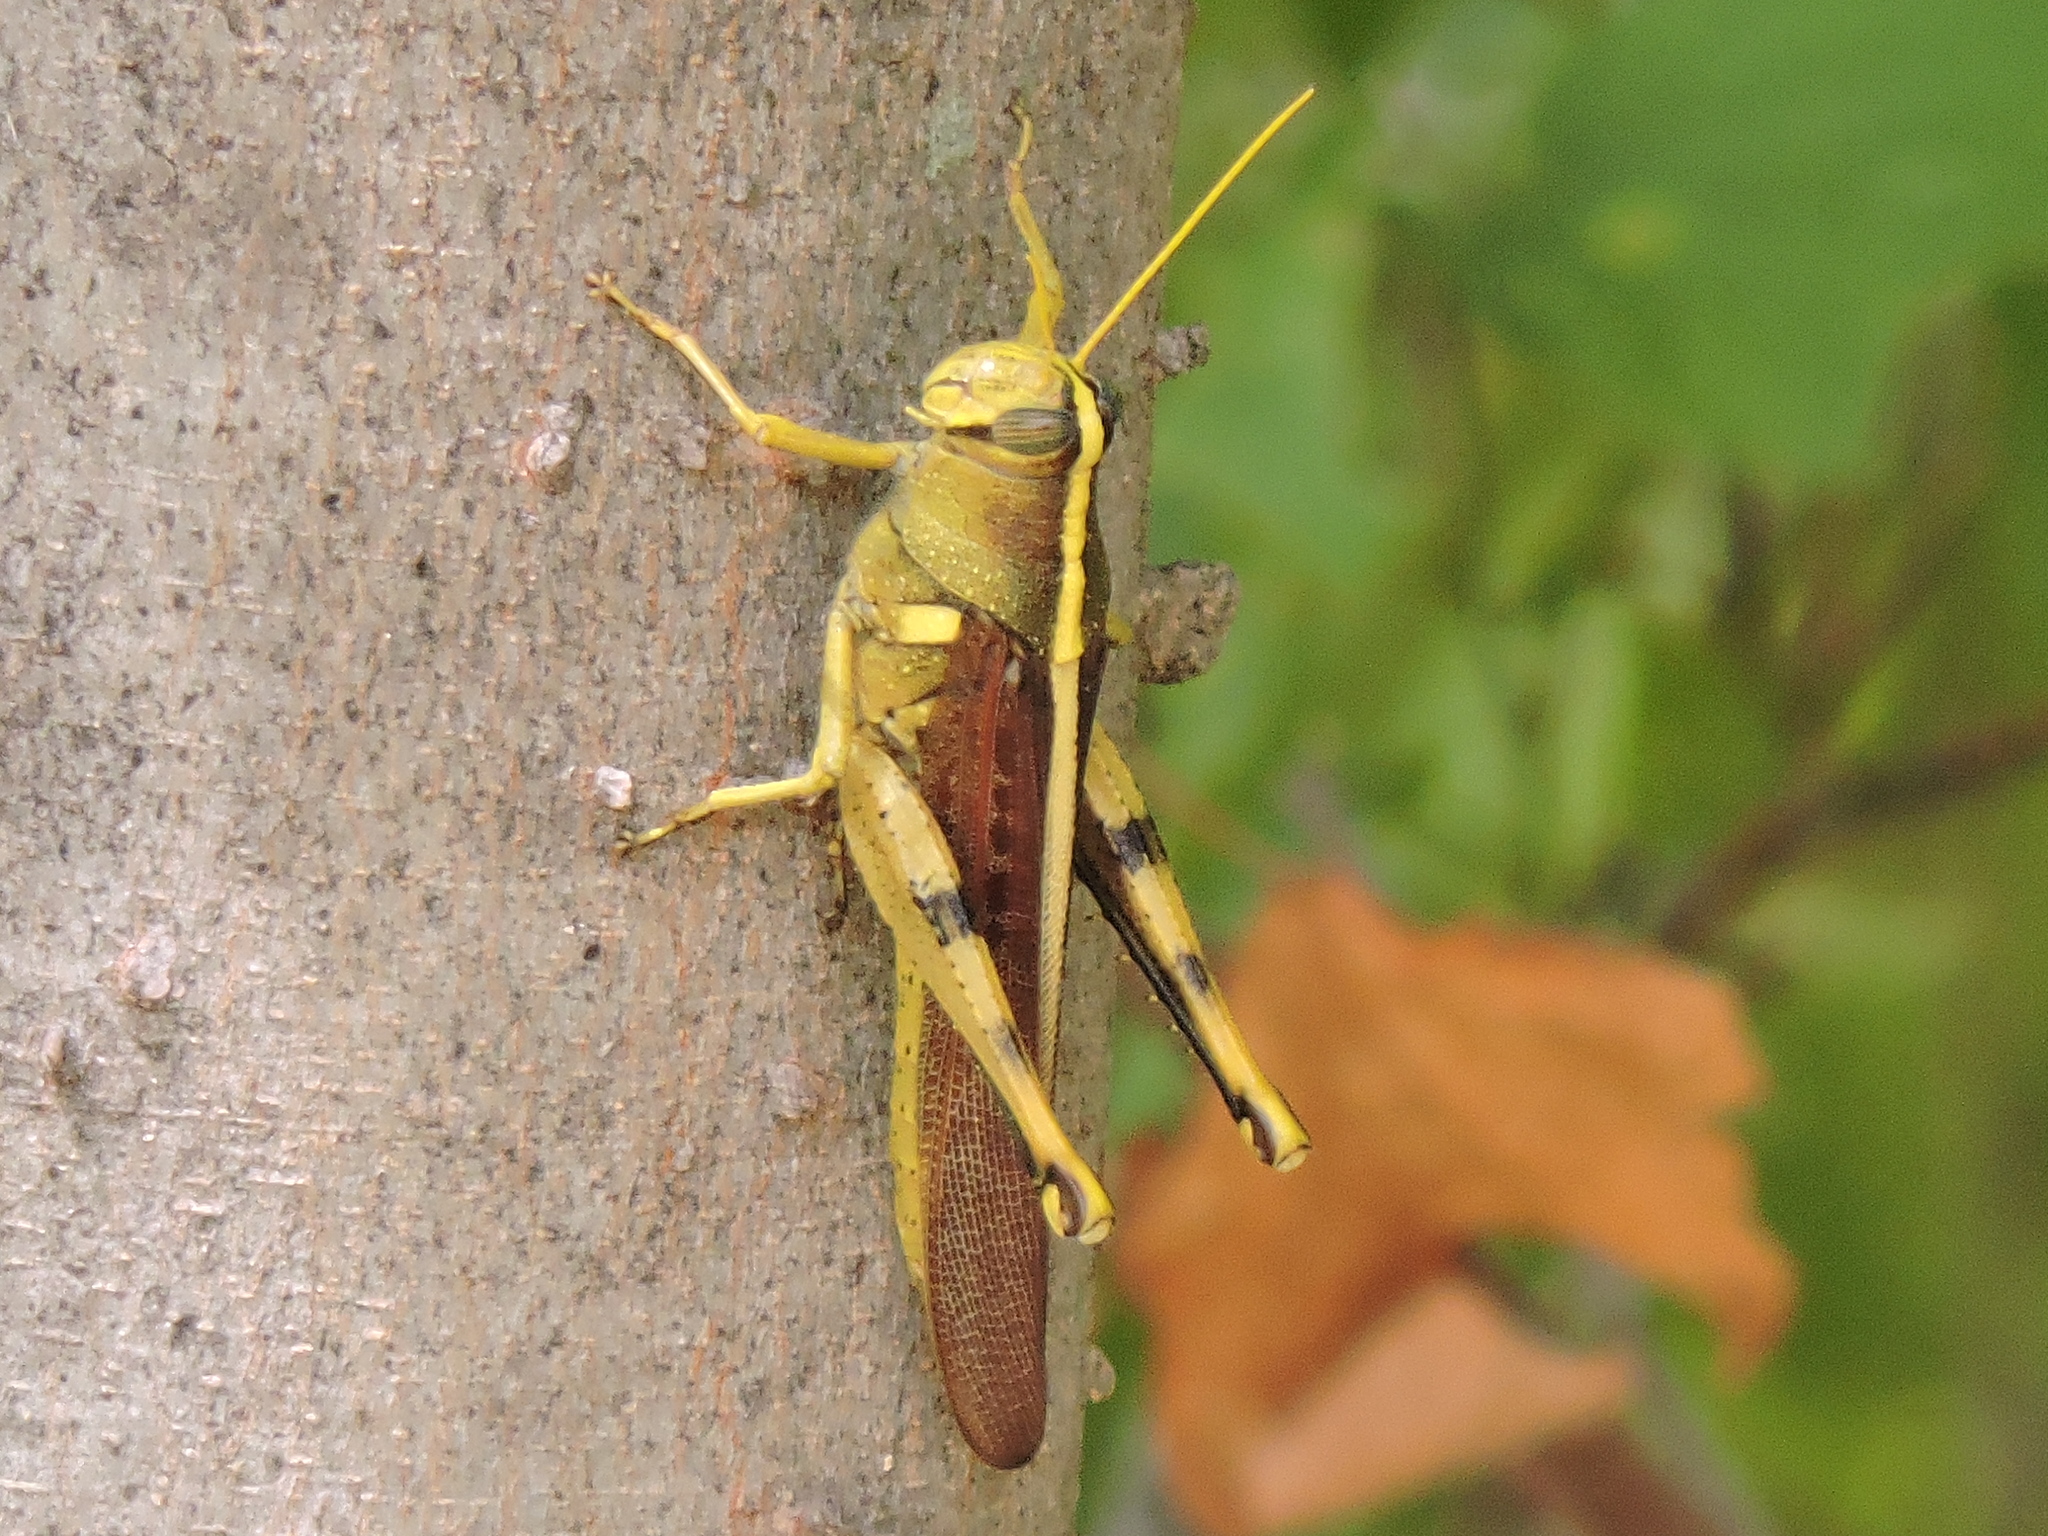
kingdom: Animalia
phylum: Arthropoda
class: Insecta
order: Orthoptera
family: Acrididae
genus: Schistocerca
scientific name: Schistocerca obscura
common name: Obscure bird grasshopper
